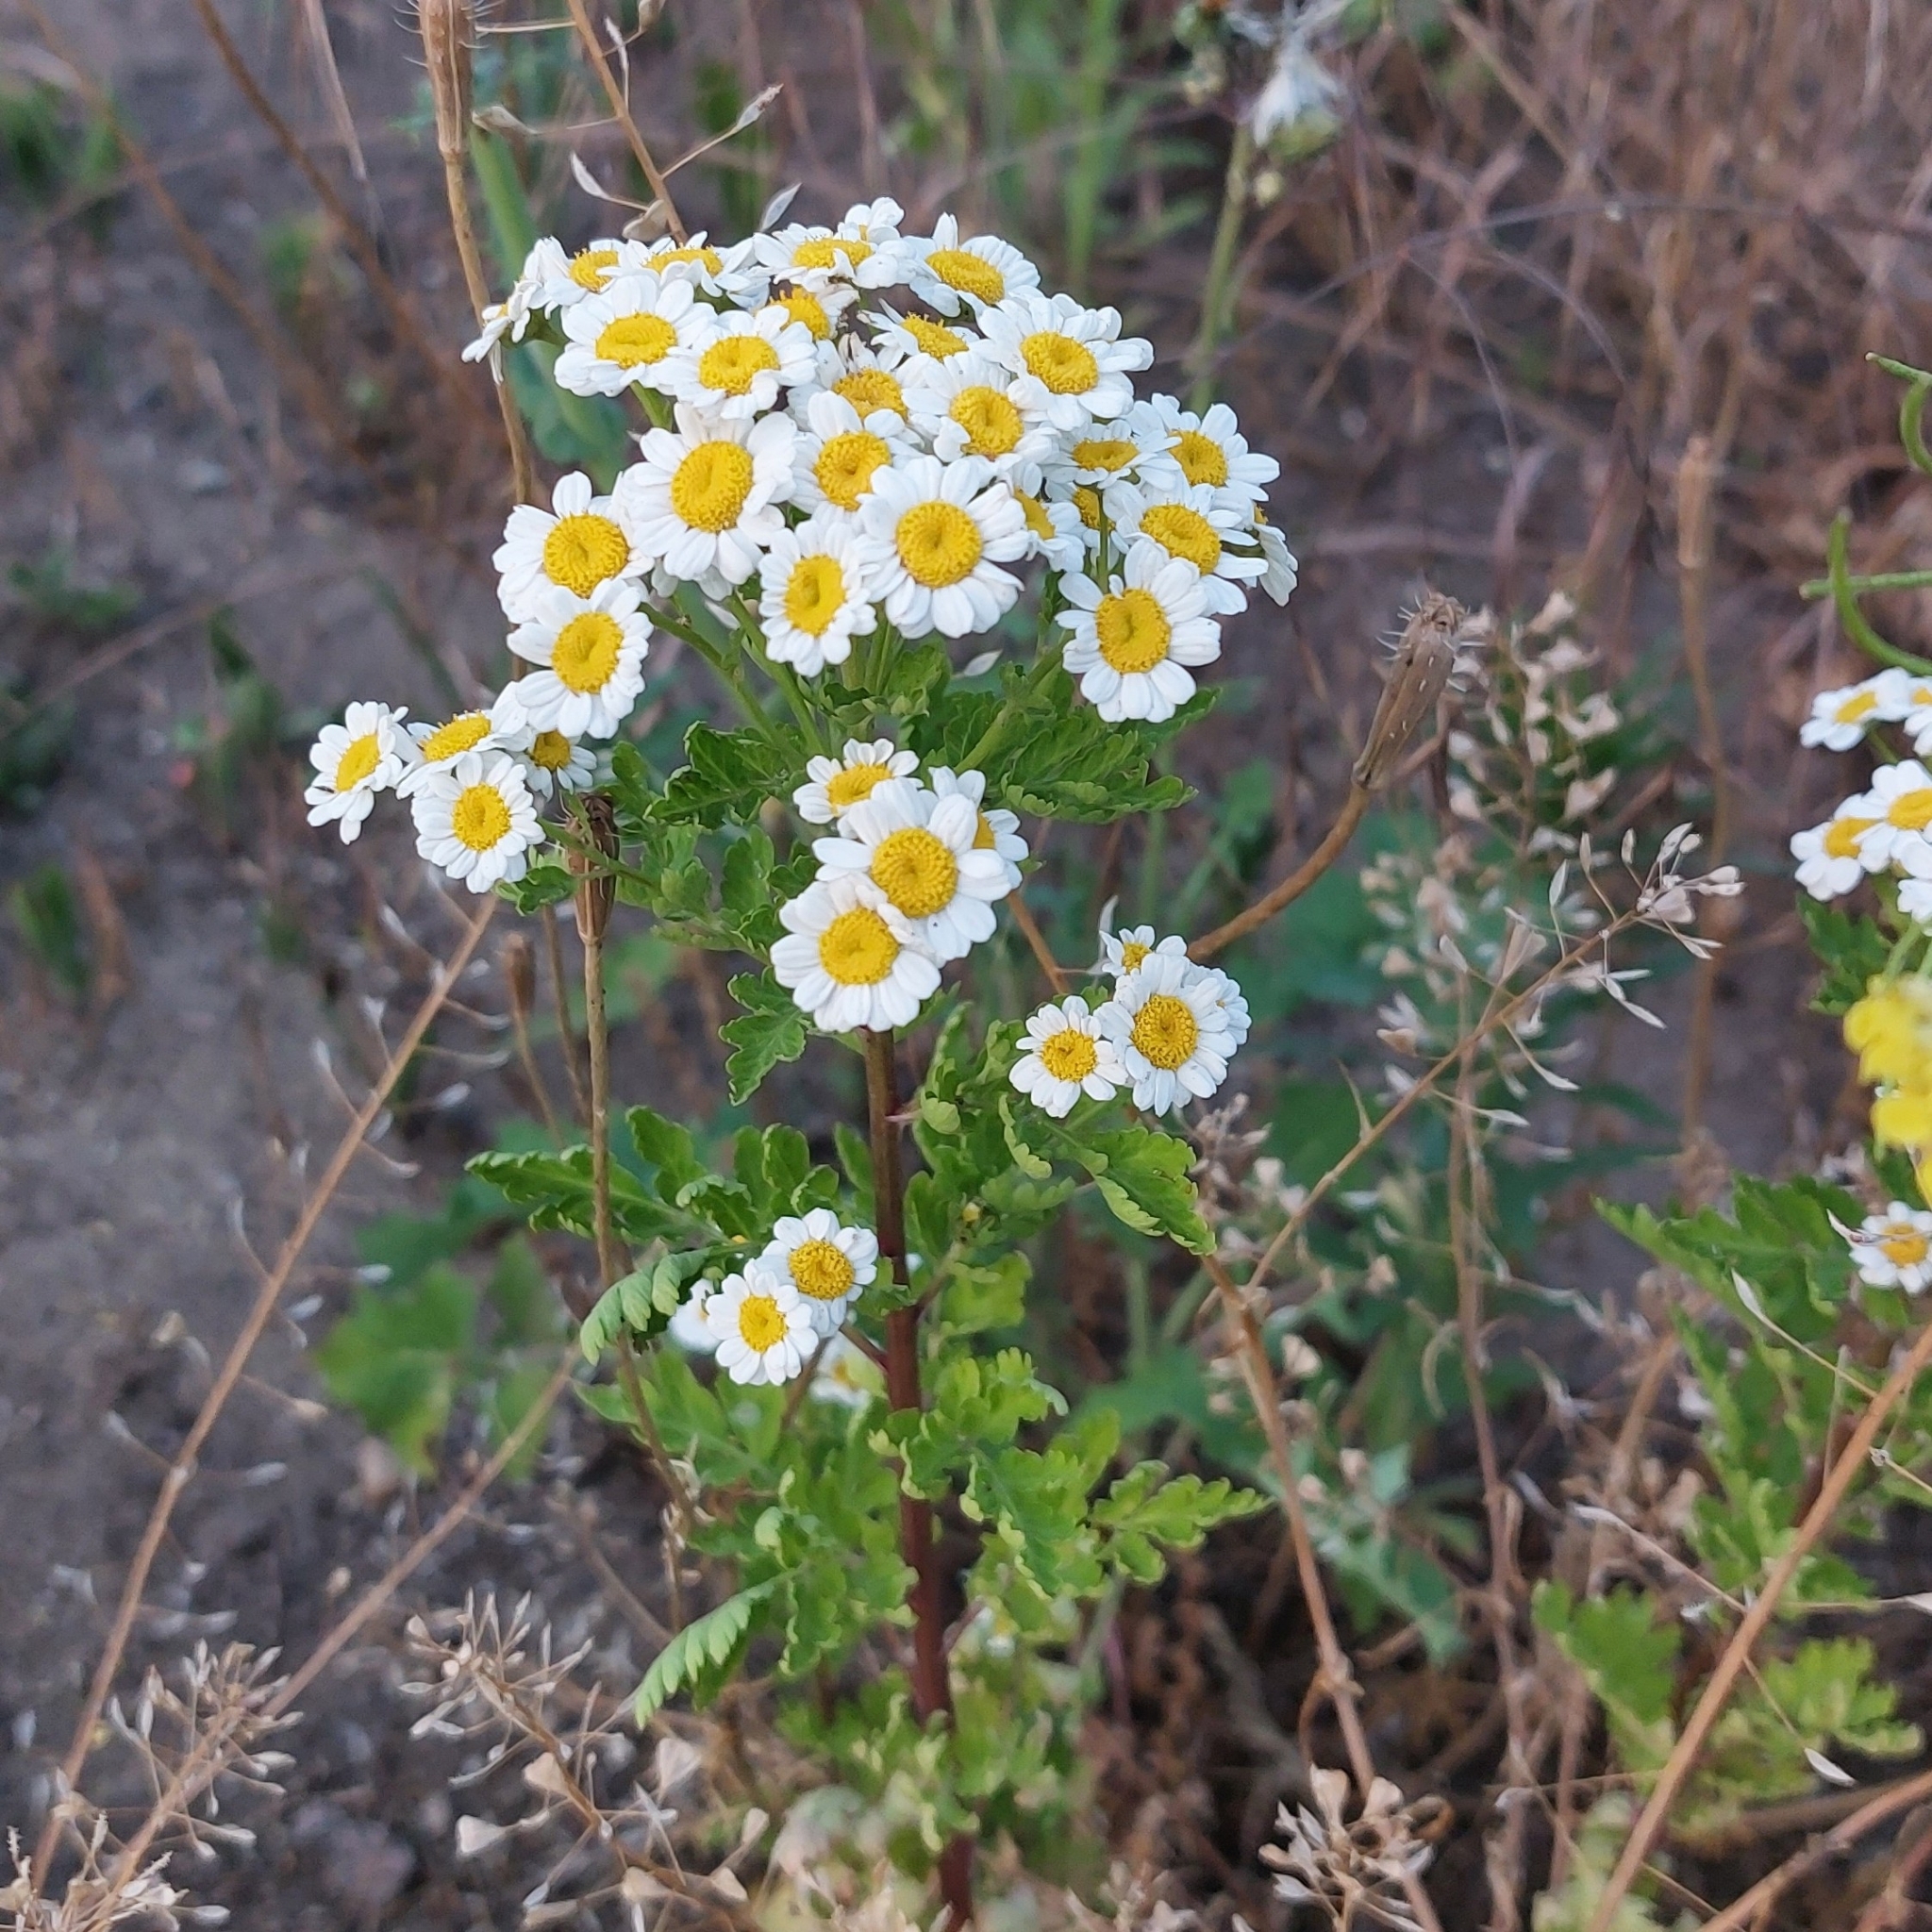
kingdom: Plantae
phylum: Tracheophyta
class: Magnoliopsida
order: Asterales
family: Asteraceae
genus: Tanacetum
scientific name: Tanacetum parthenium
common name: Feverfew
